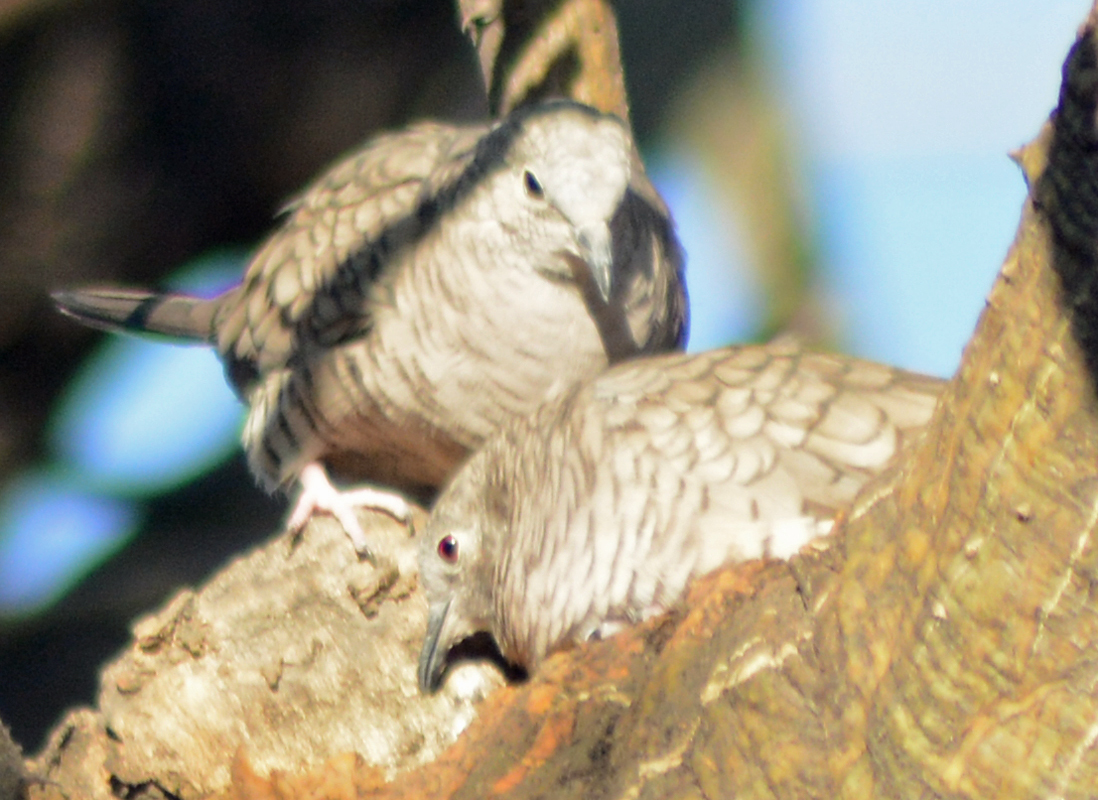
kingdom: Animalia
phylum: Chordata
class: Aves
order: Columbiformes
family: Columbidae
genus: Columbina
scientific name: Columbina inca
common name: Inca dove
